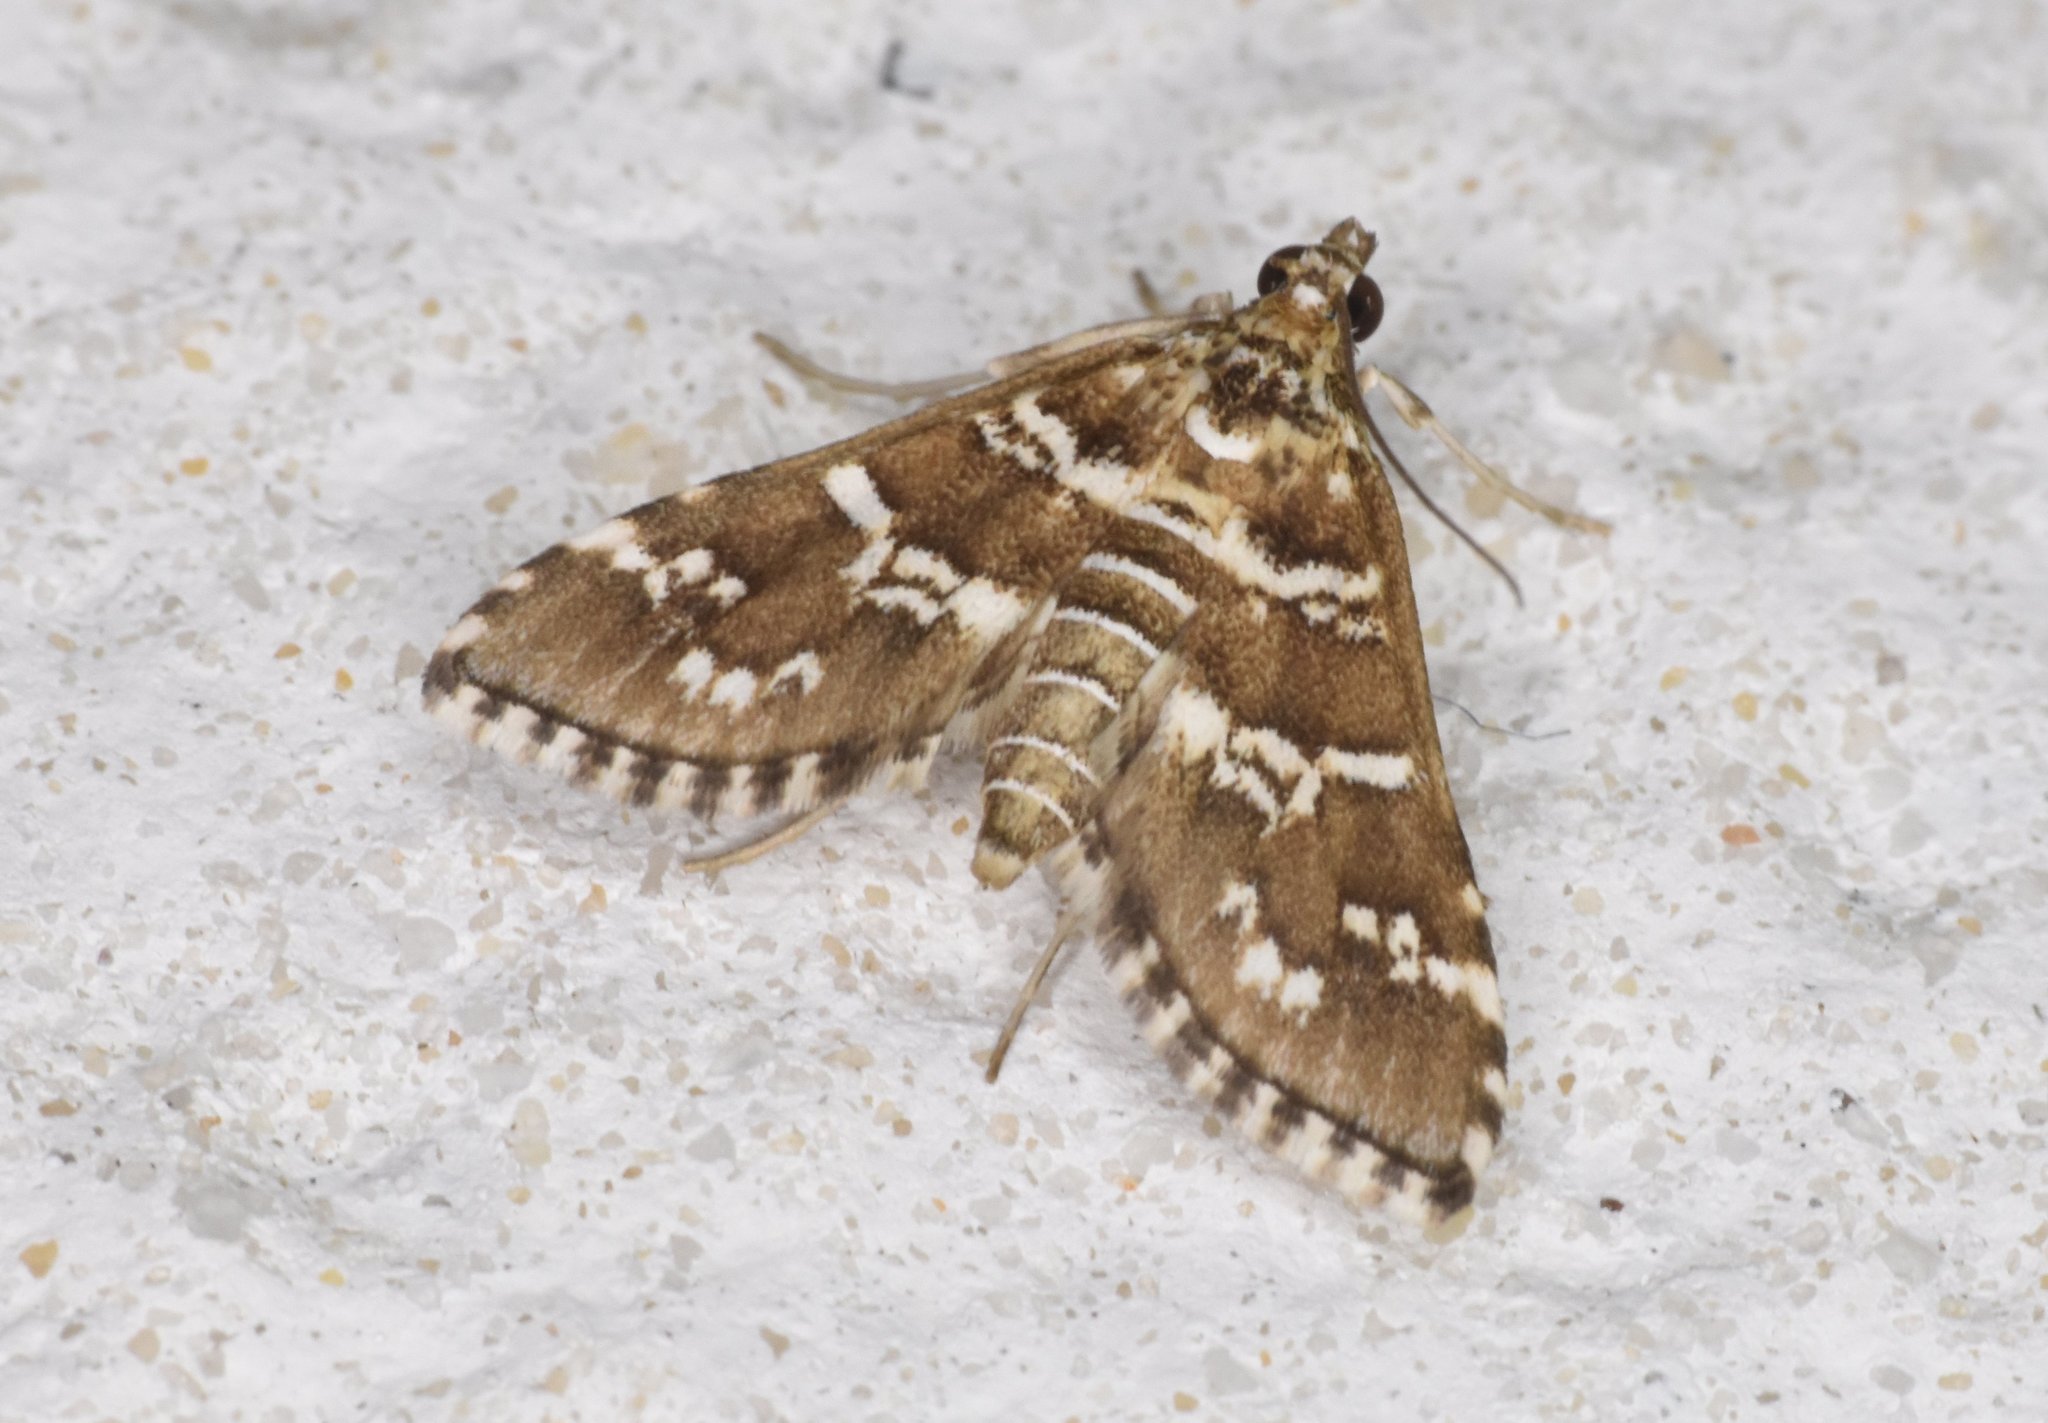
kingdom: Animalia
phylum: Arthropoda
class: Insecta
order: Lepidoptera
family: Crambidae
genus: Samea
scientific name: Samea multiplicalis
